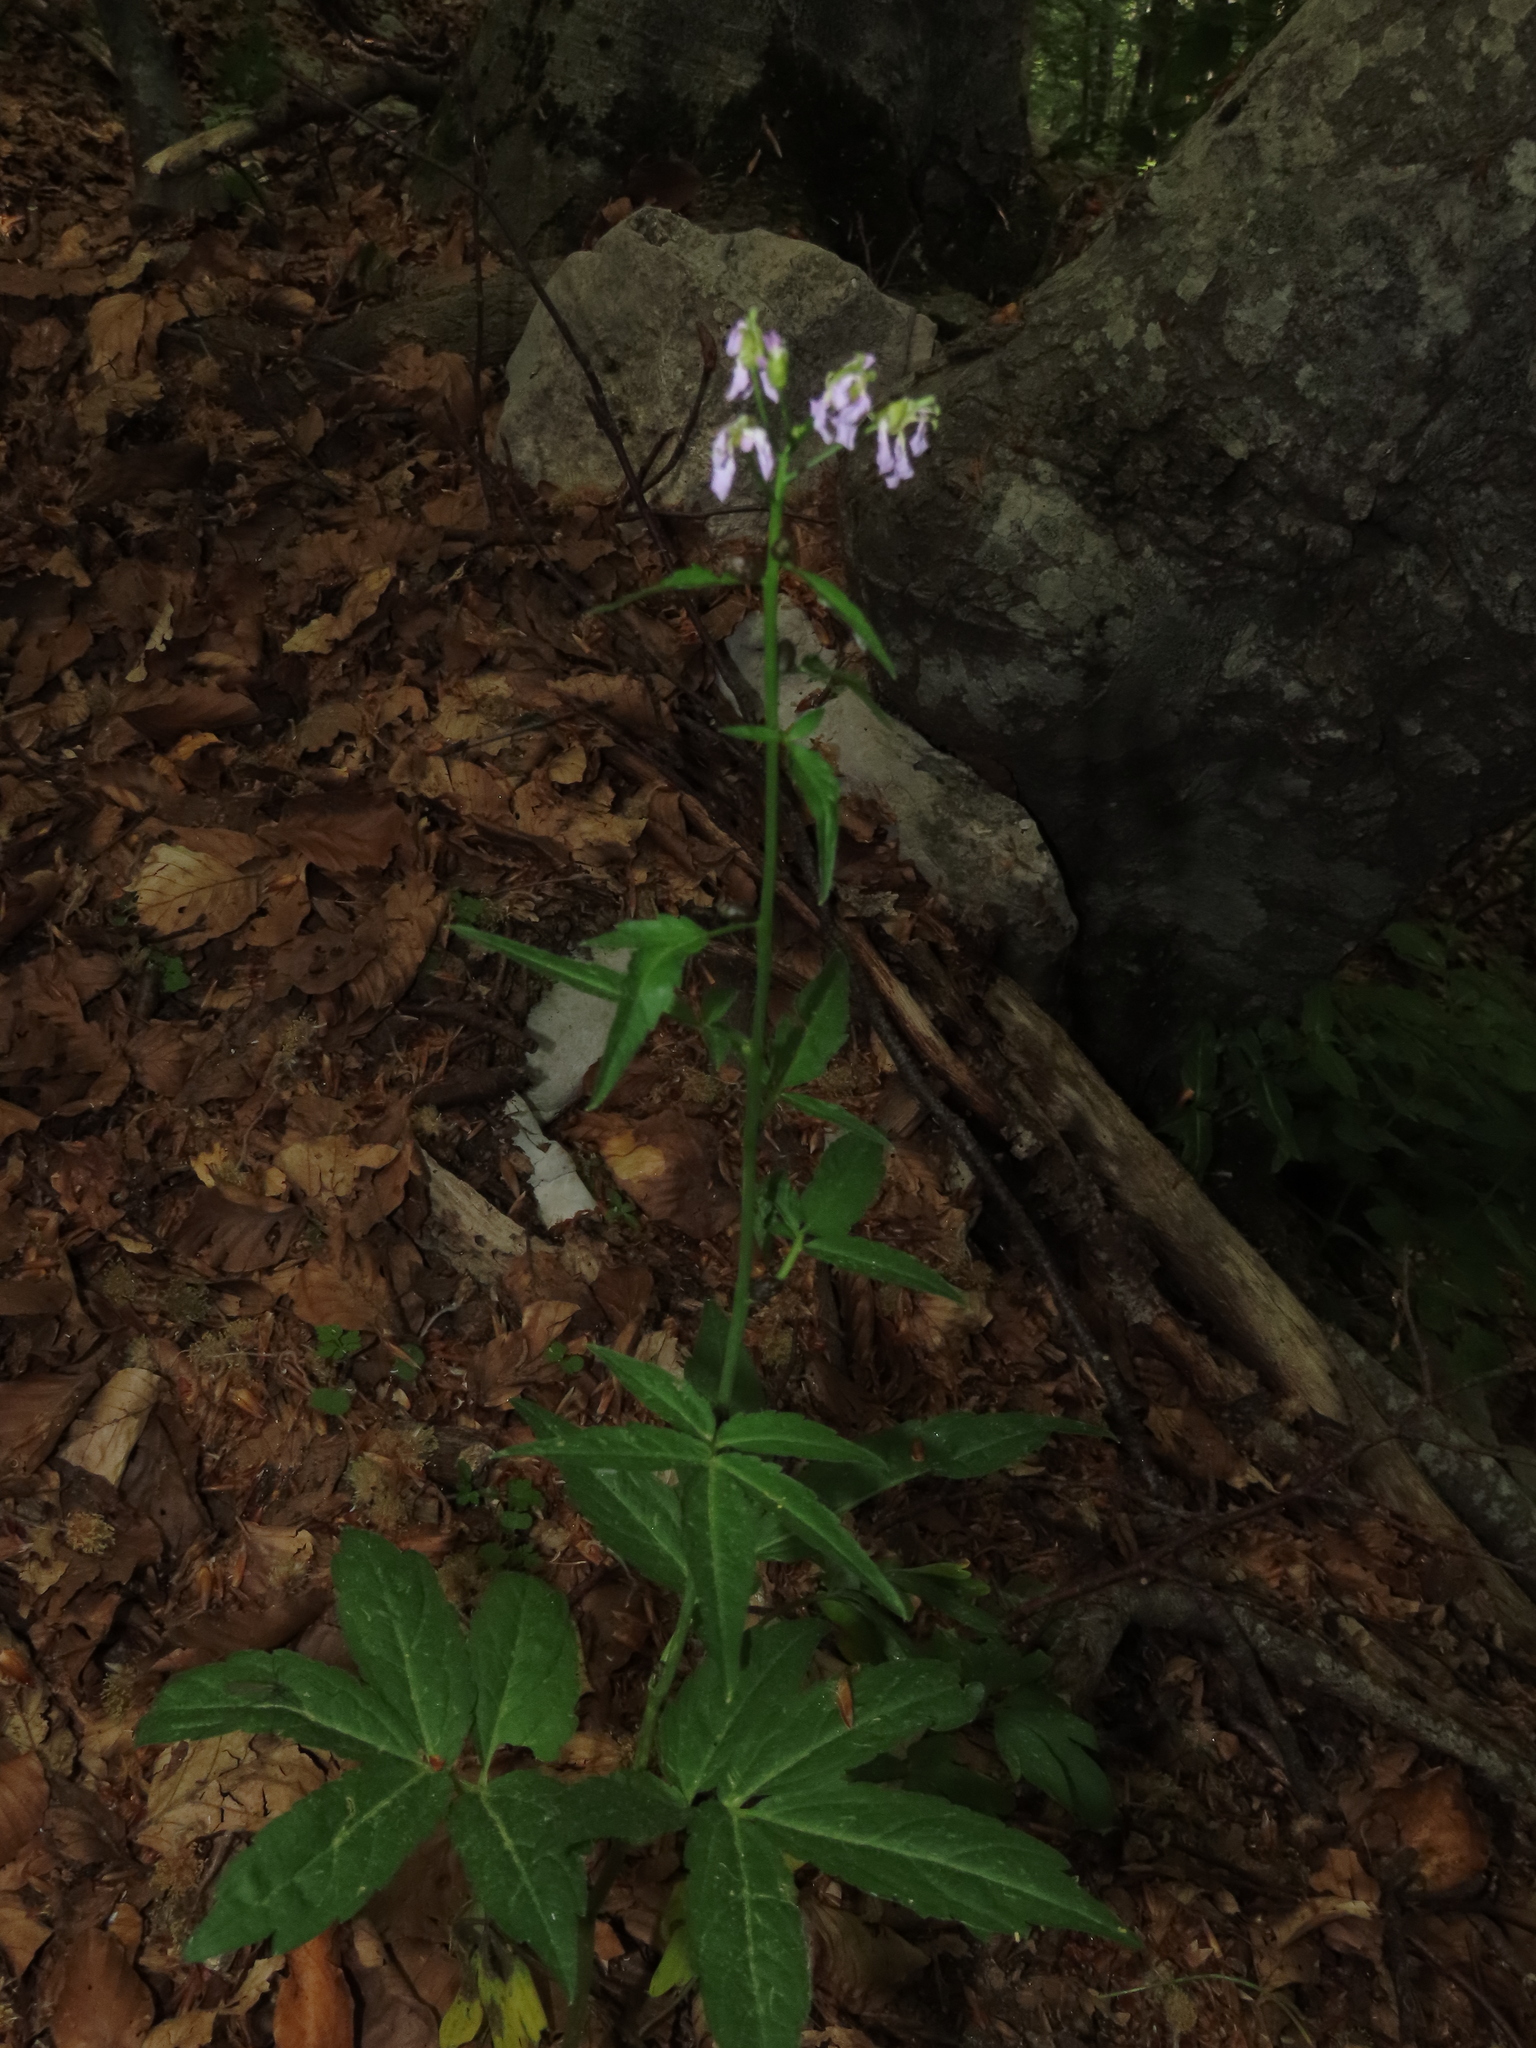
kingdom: Plantae
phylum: Tracheophyta
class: Magnoliopsida
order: Brassicales
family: Brassicaceae
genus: Cardamine
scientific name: Cardamine bulbifera
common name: Coralroot bittercress
